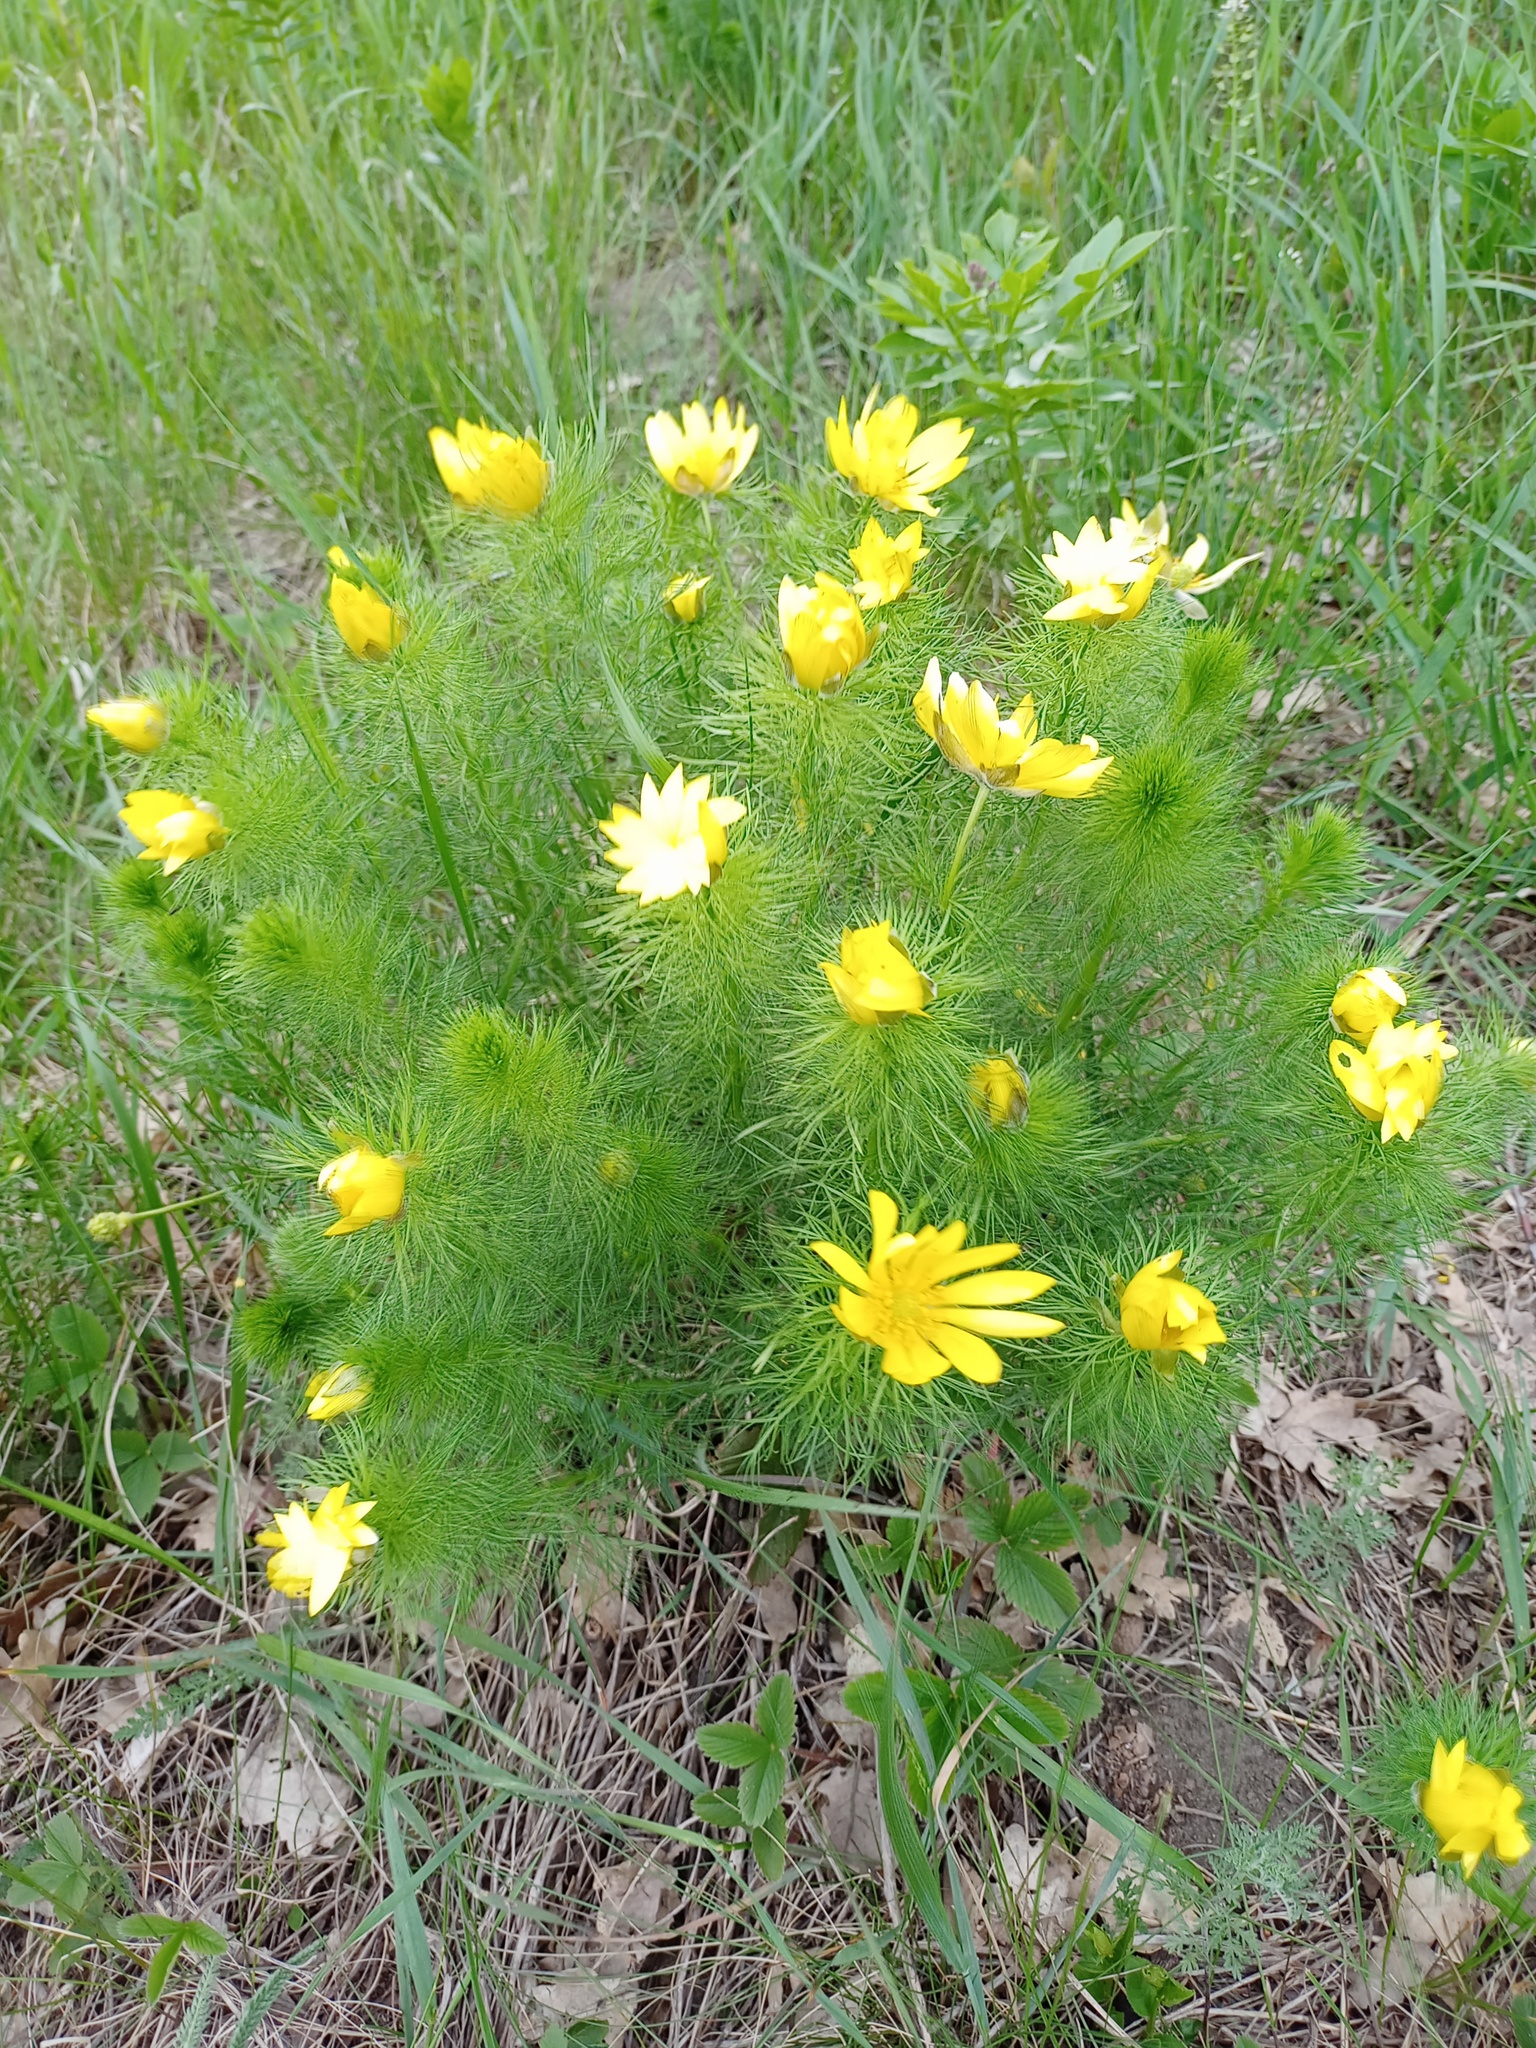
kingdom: Plantae
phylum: Tracheophyta
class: Magnoliopsida
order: Ranunculales
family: Ranunculaceae
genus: Adonis
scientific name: Adonis vernalis
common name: Yellow pheasants-eye
